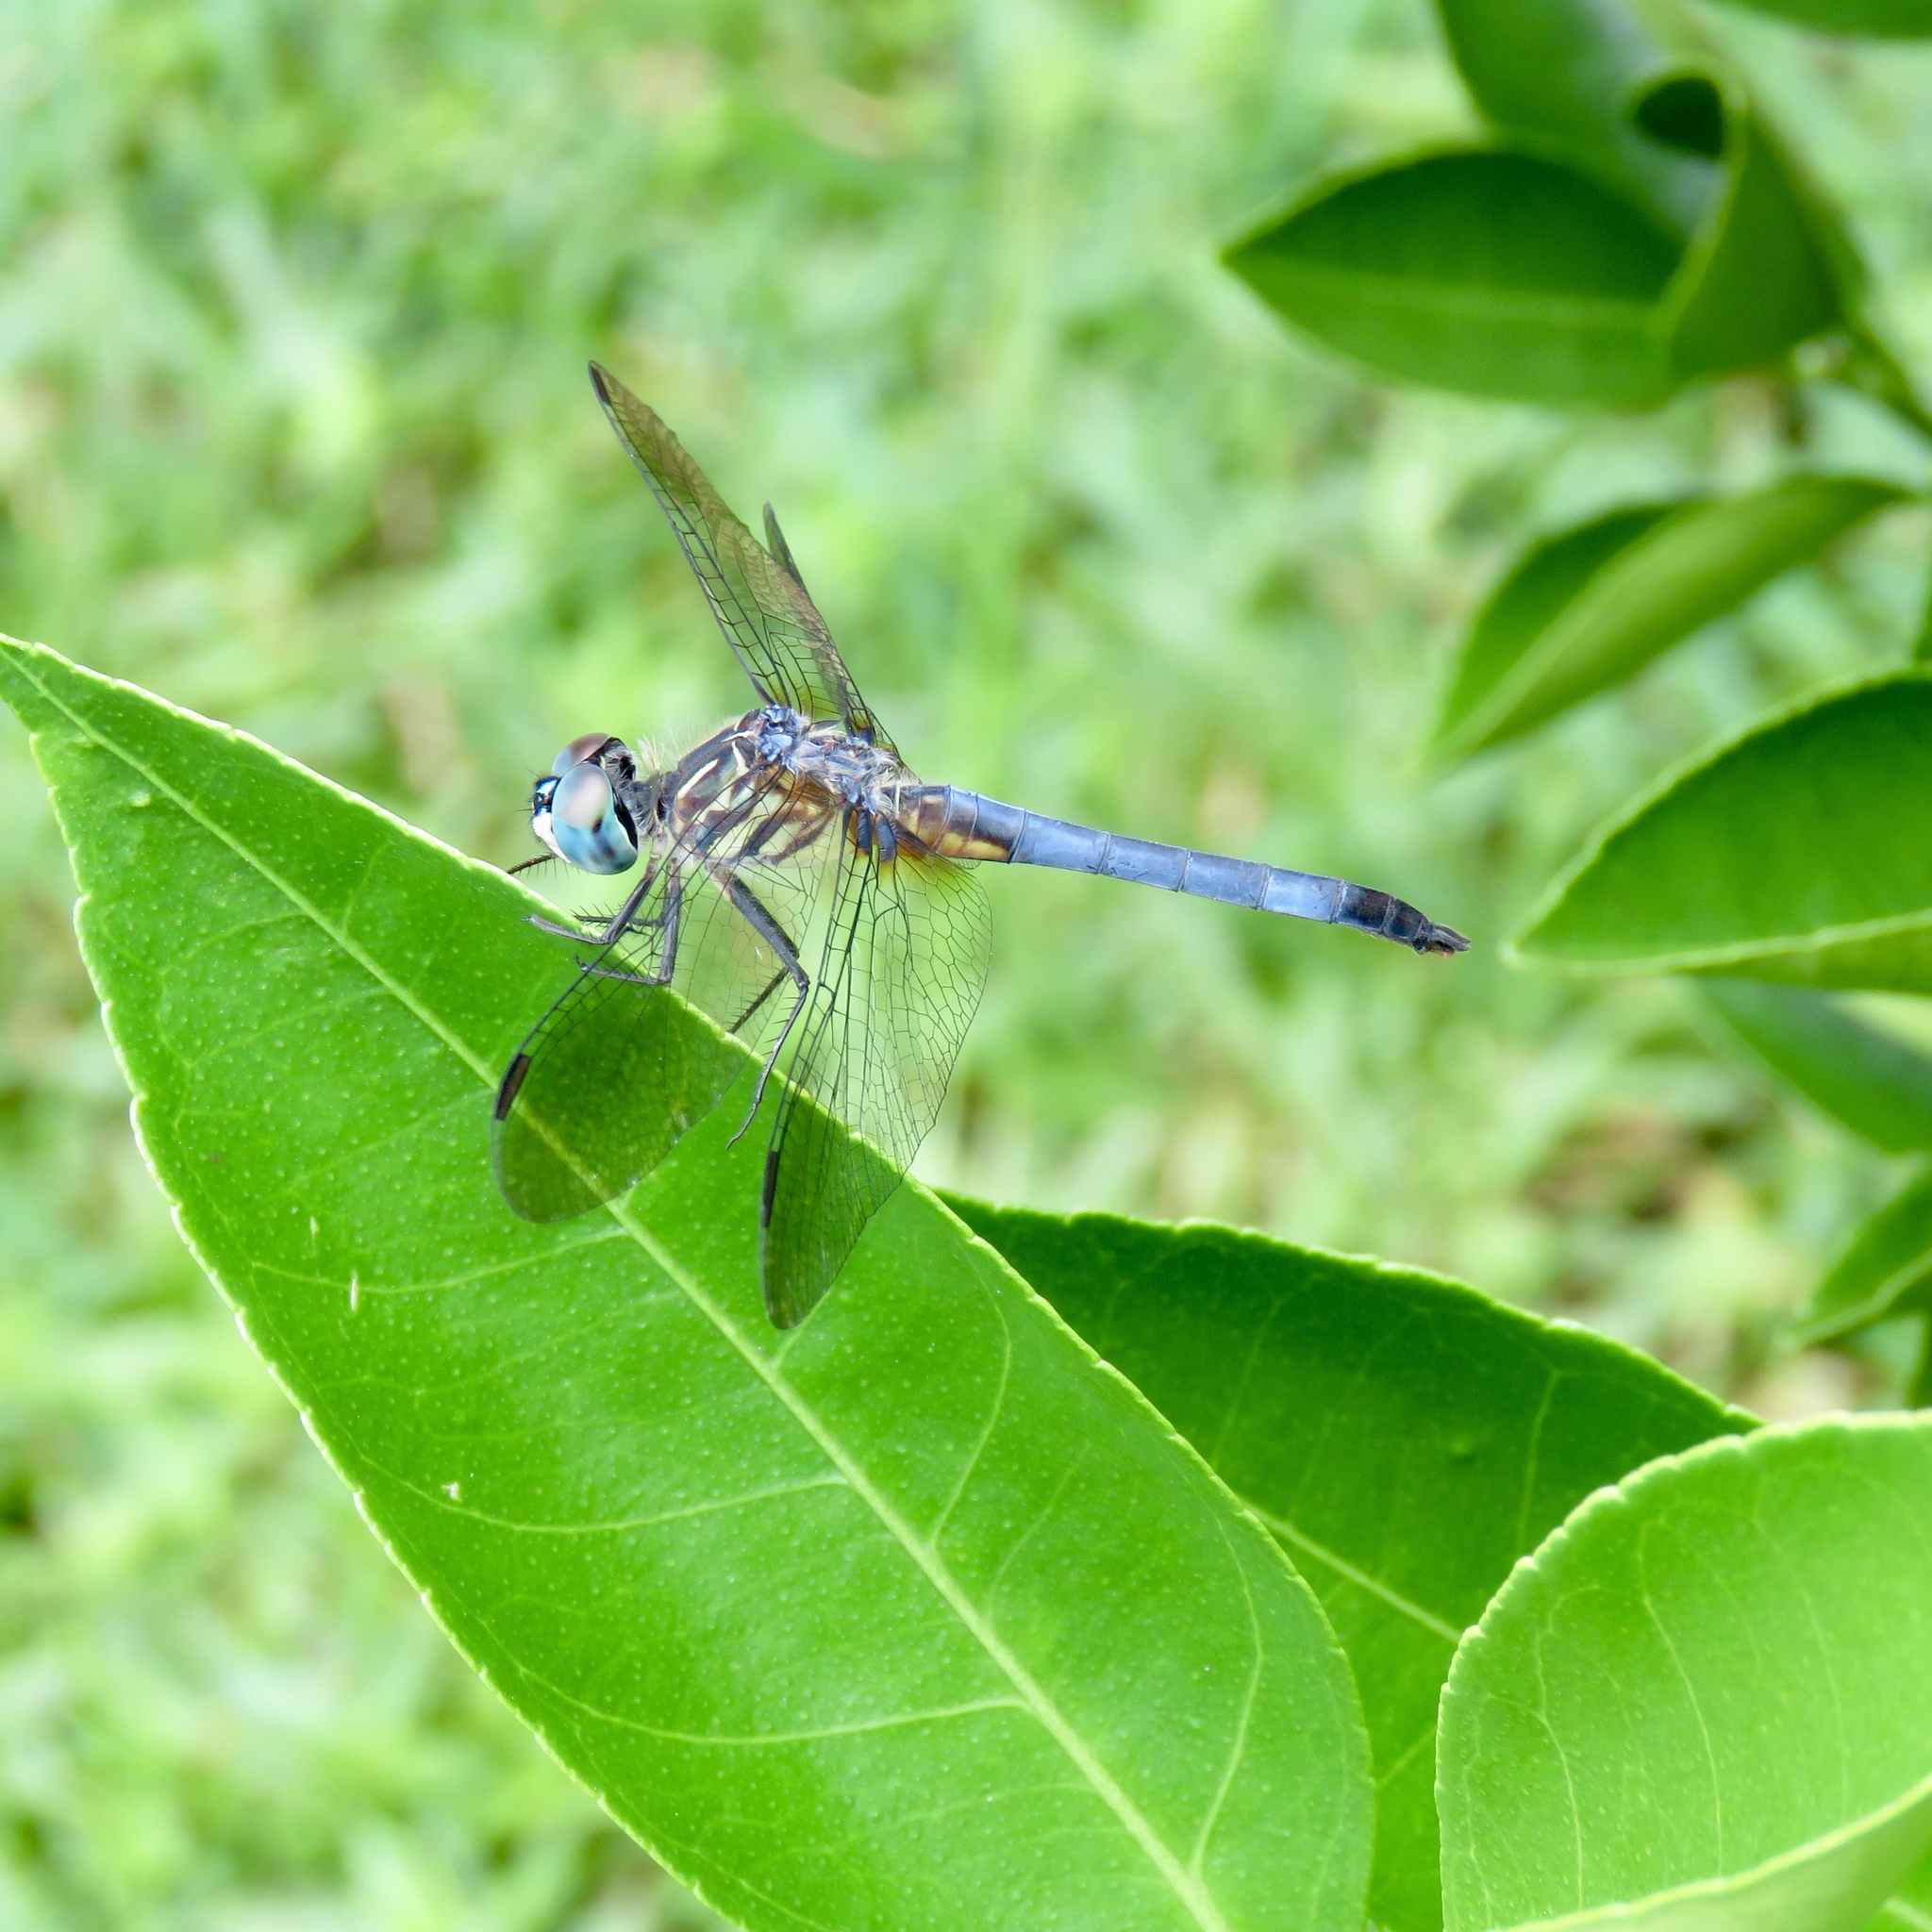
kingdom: Animalia
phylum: Arthropoda
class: Insecta
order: Odonata
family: Libellulidae
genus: Pachydiplax
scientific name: Pachydiplax longipennis
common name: Blue dasher
